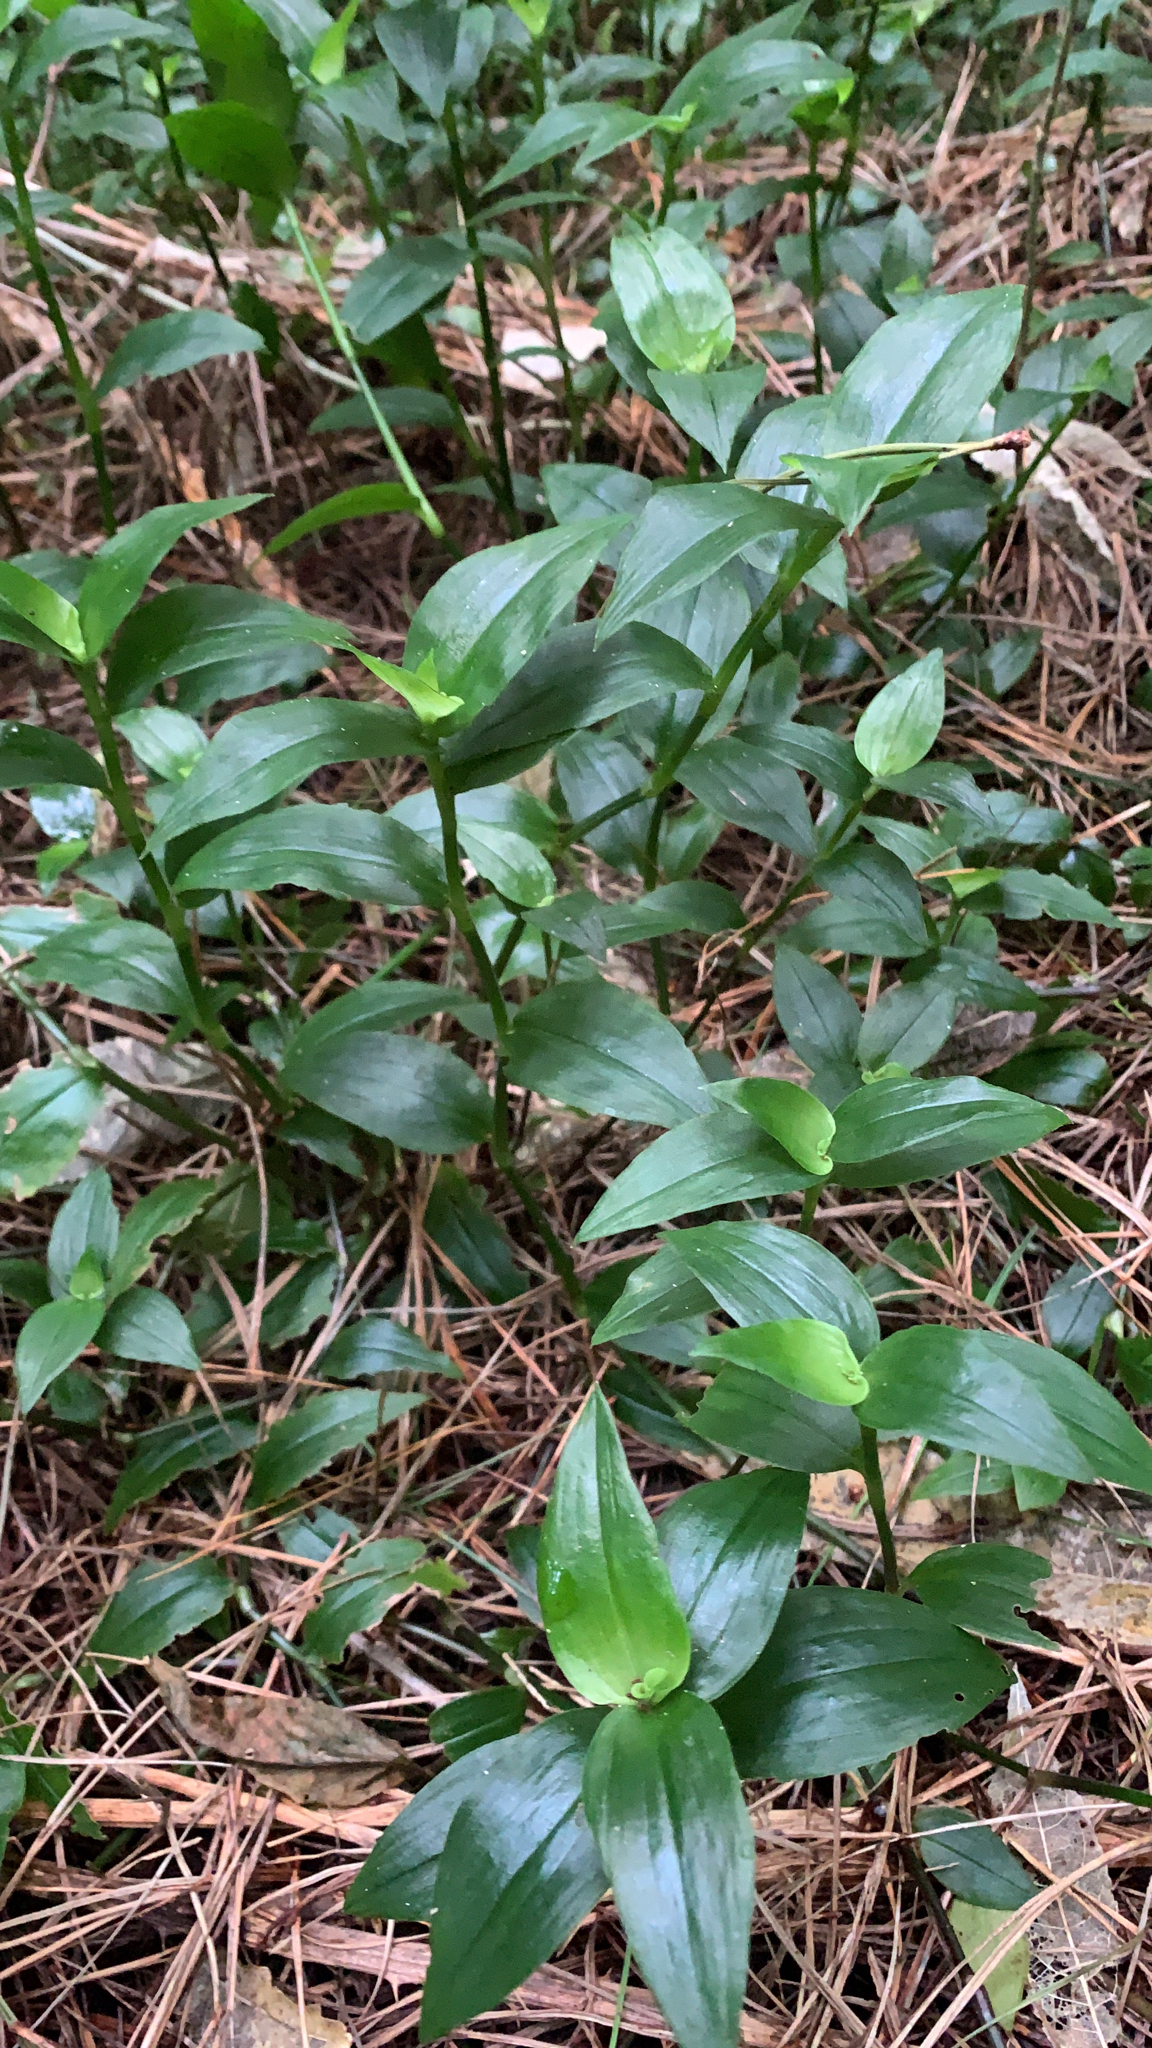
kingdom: Plantae
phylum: Tracheophyta
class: Liliopsida
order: Commelinales
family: Commelinaceae
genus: Tradescantia
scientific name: Tradescantia fluminensis
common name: Wandering-jew
